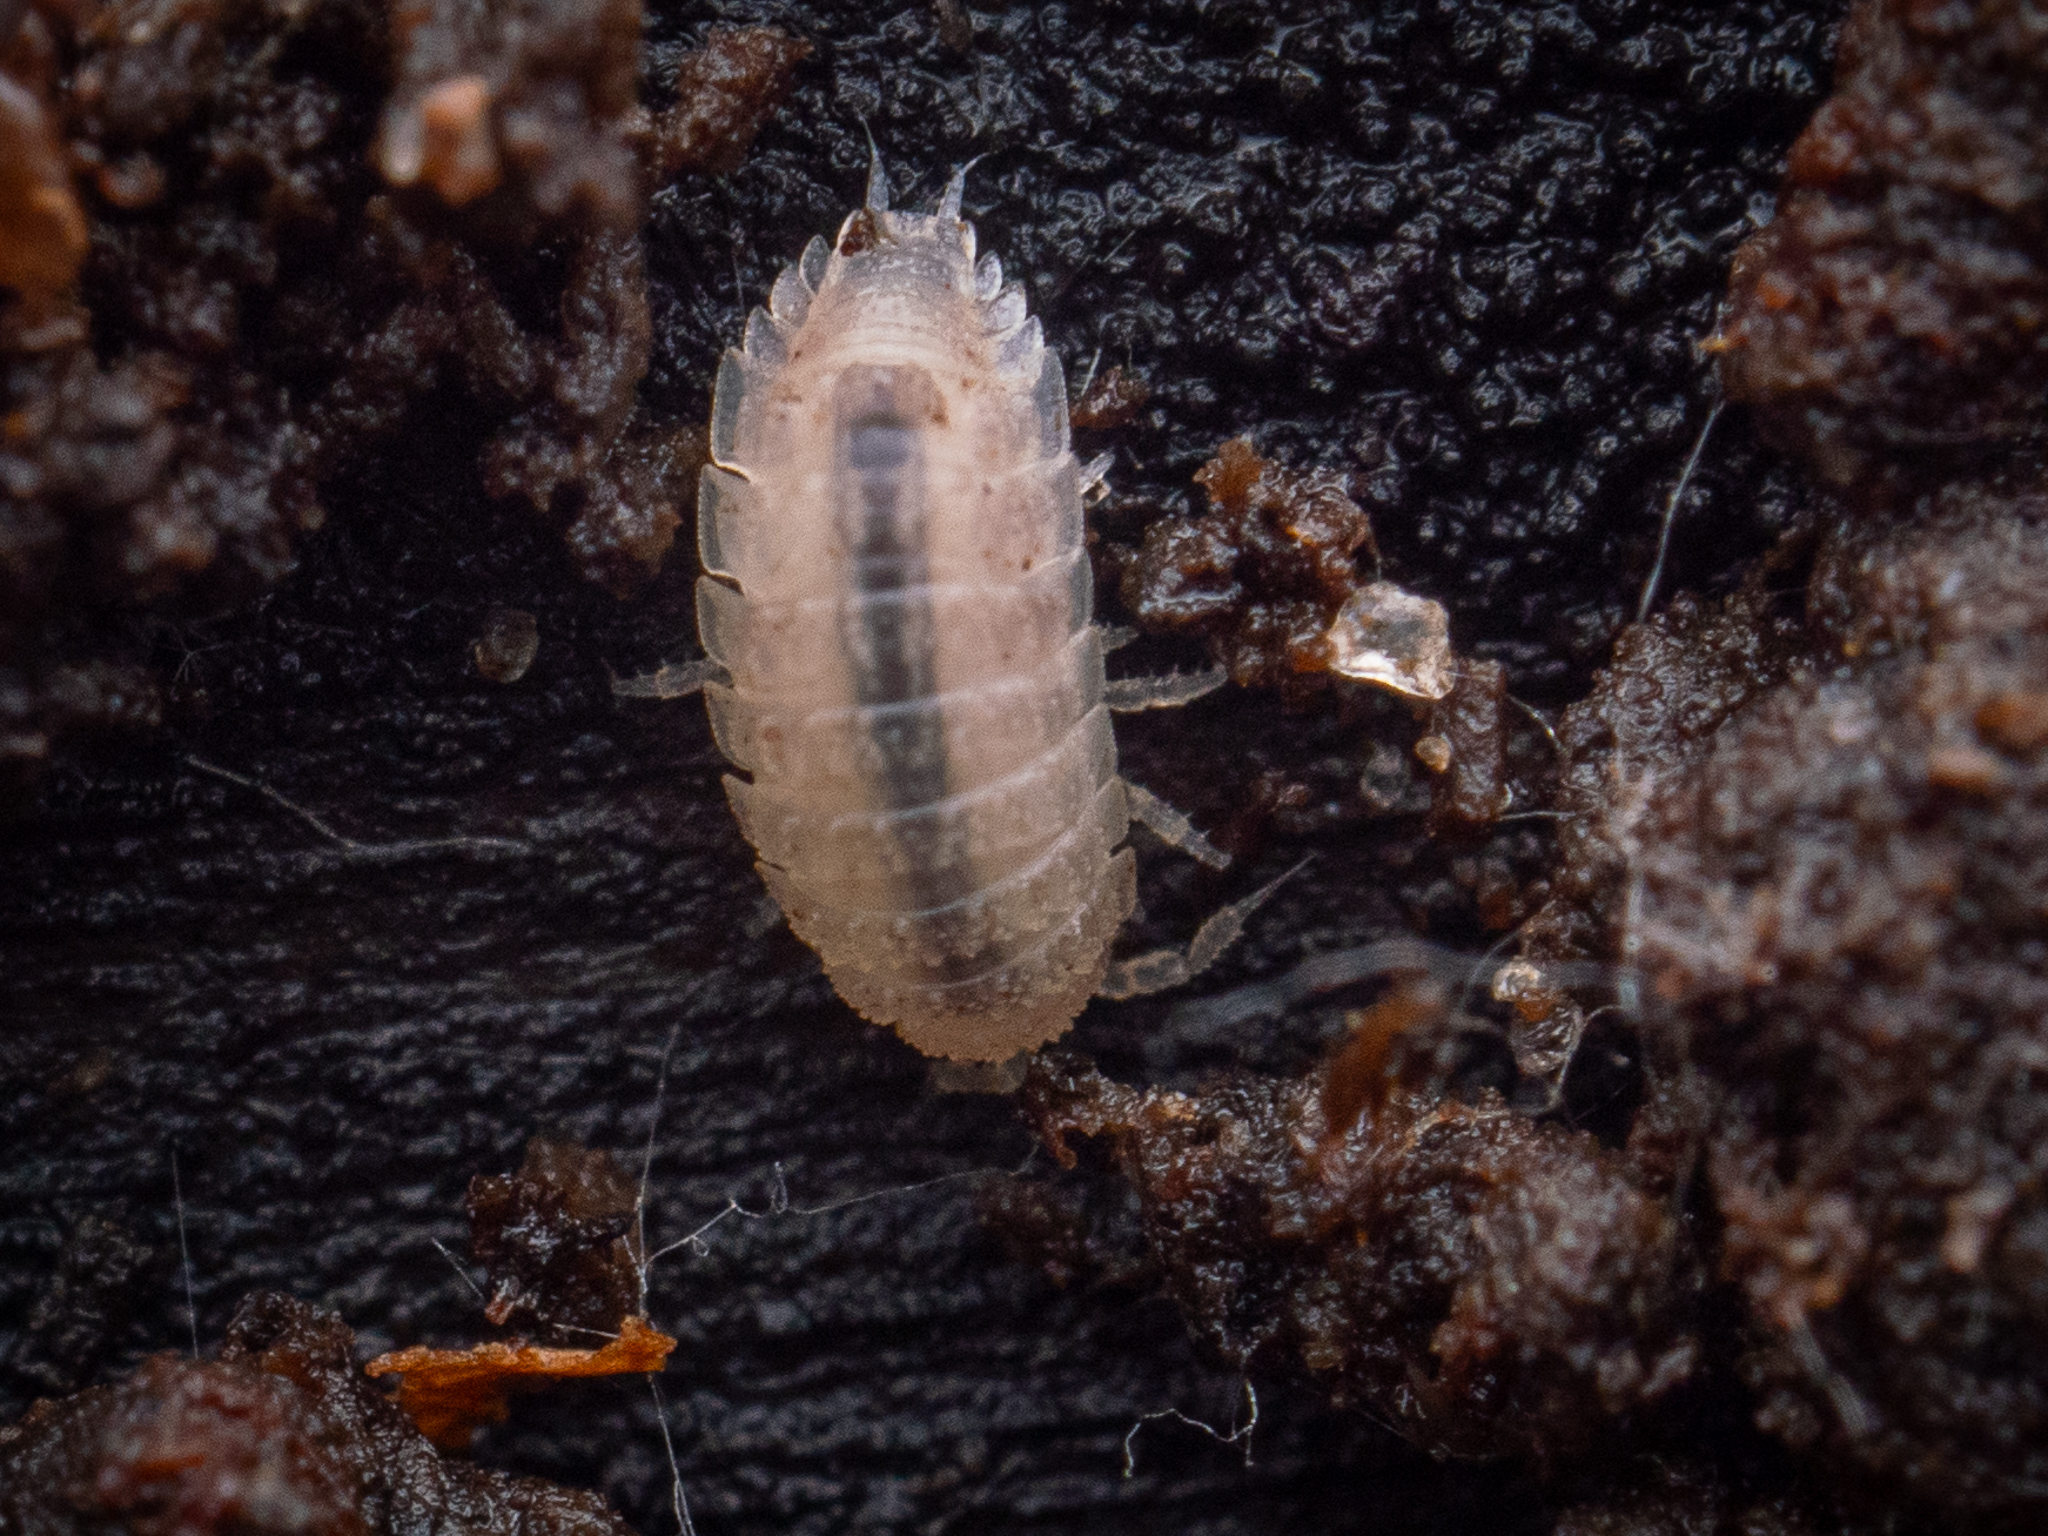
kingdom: Animalia
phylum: Arthropoda
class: Malacostraca
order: Isopoda
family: Trichoniscidae
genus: Haplophthalmus
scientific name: Haplophthalmus danicus
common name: Pillbug
